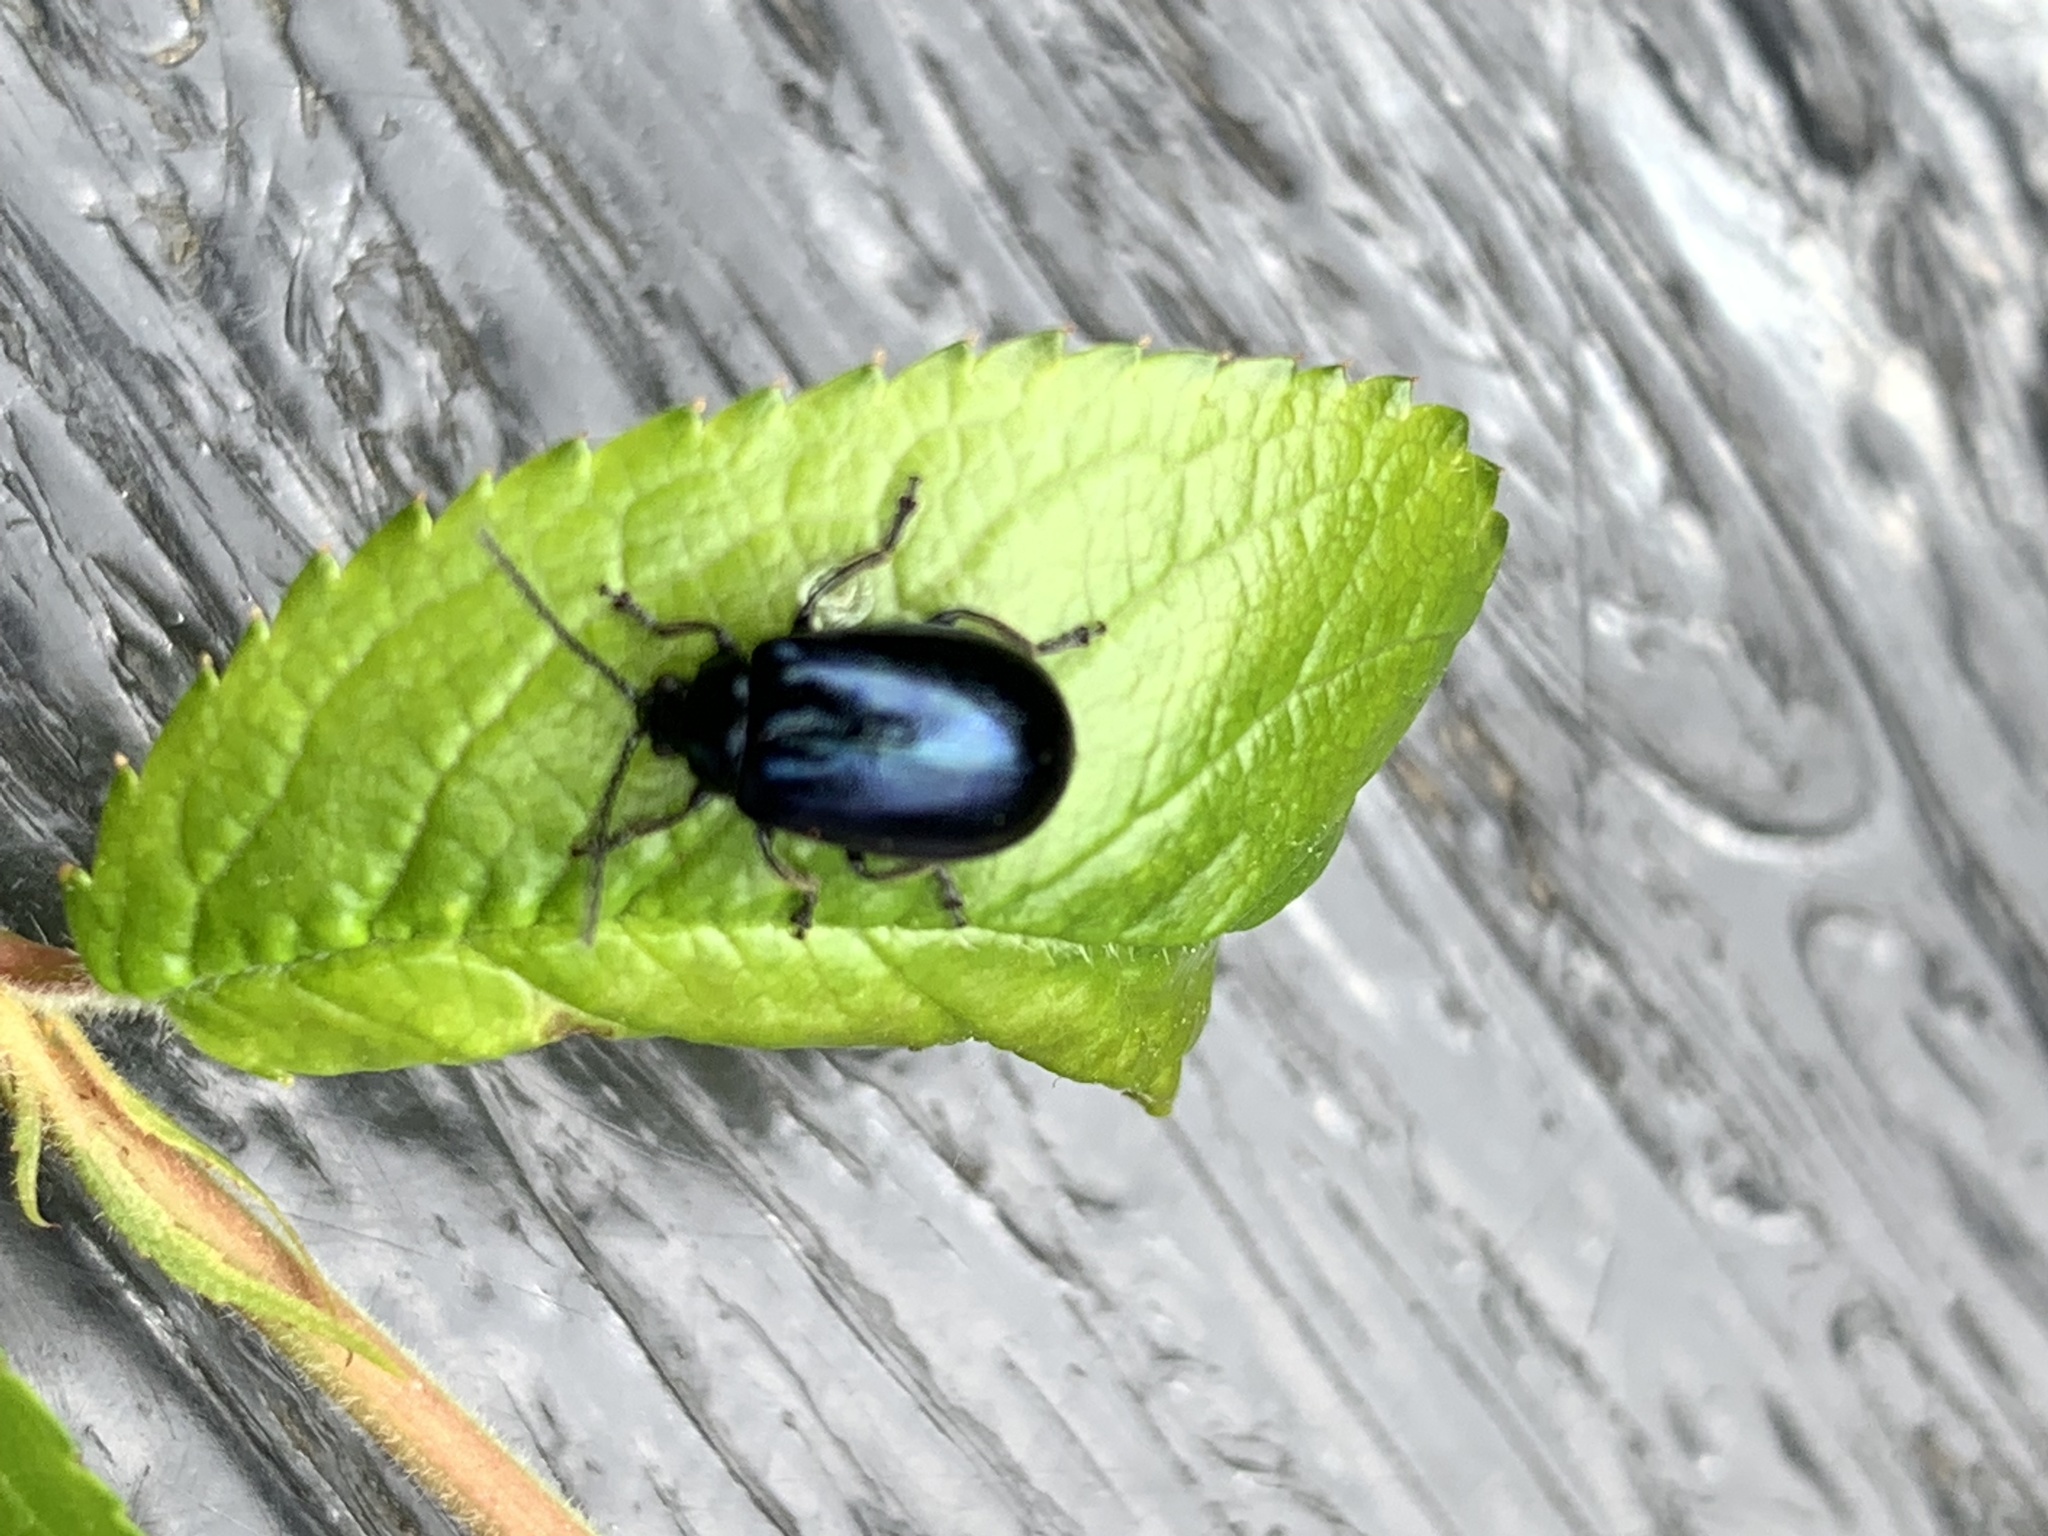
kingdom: Animalia
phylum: Arthropoda
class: Insecta
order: Coleoptera
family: Chrysomelidae
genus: Agelastica
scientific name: Agelastica alni
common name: Alder leaf beetle
